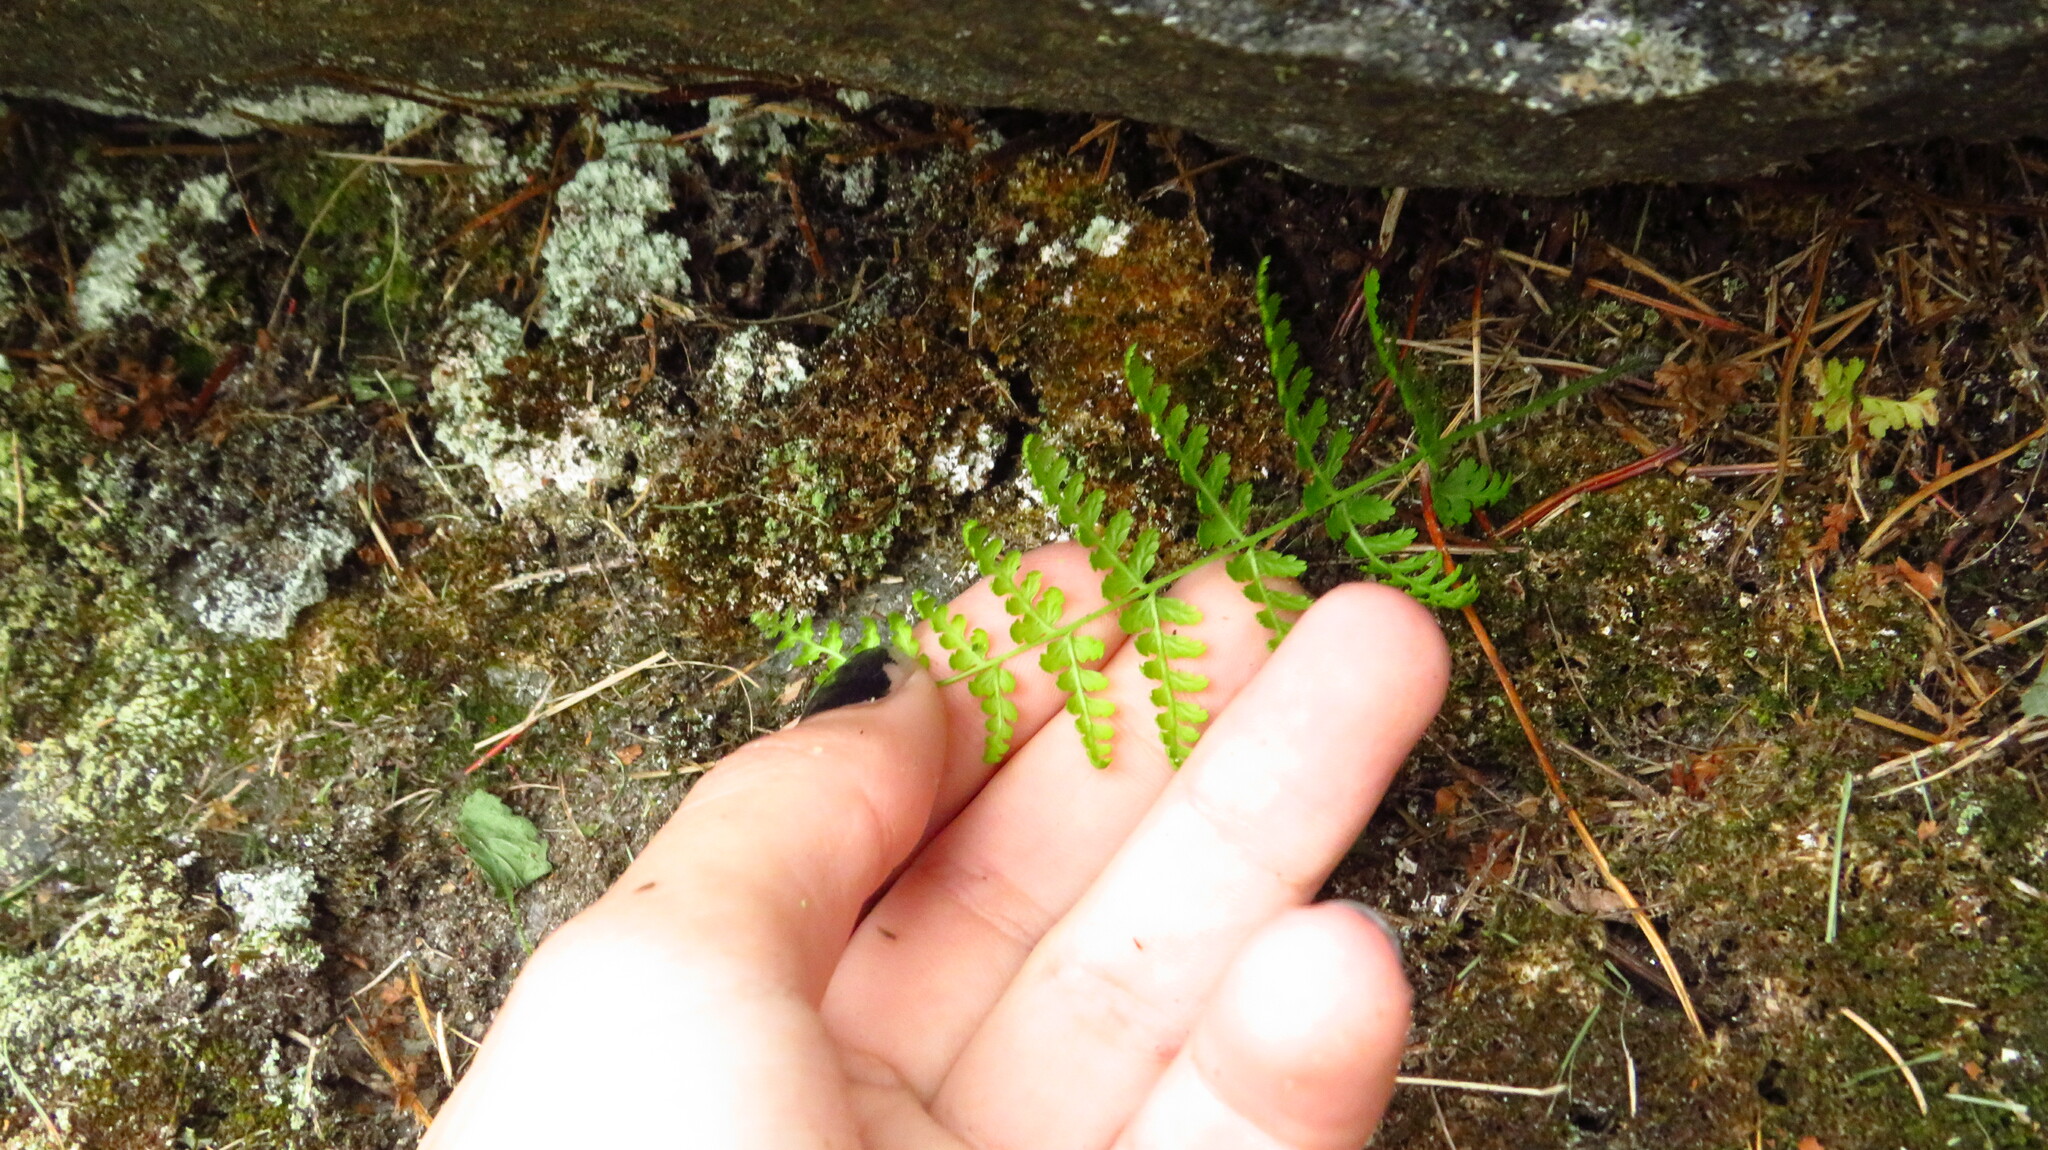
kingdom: Plantae
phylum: Tracheophyta
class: Polypodiopsida
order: Polypodiales
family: Dennstaedtiaceae
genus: Sitobolium
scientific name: Sitobolium punctilobum
